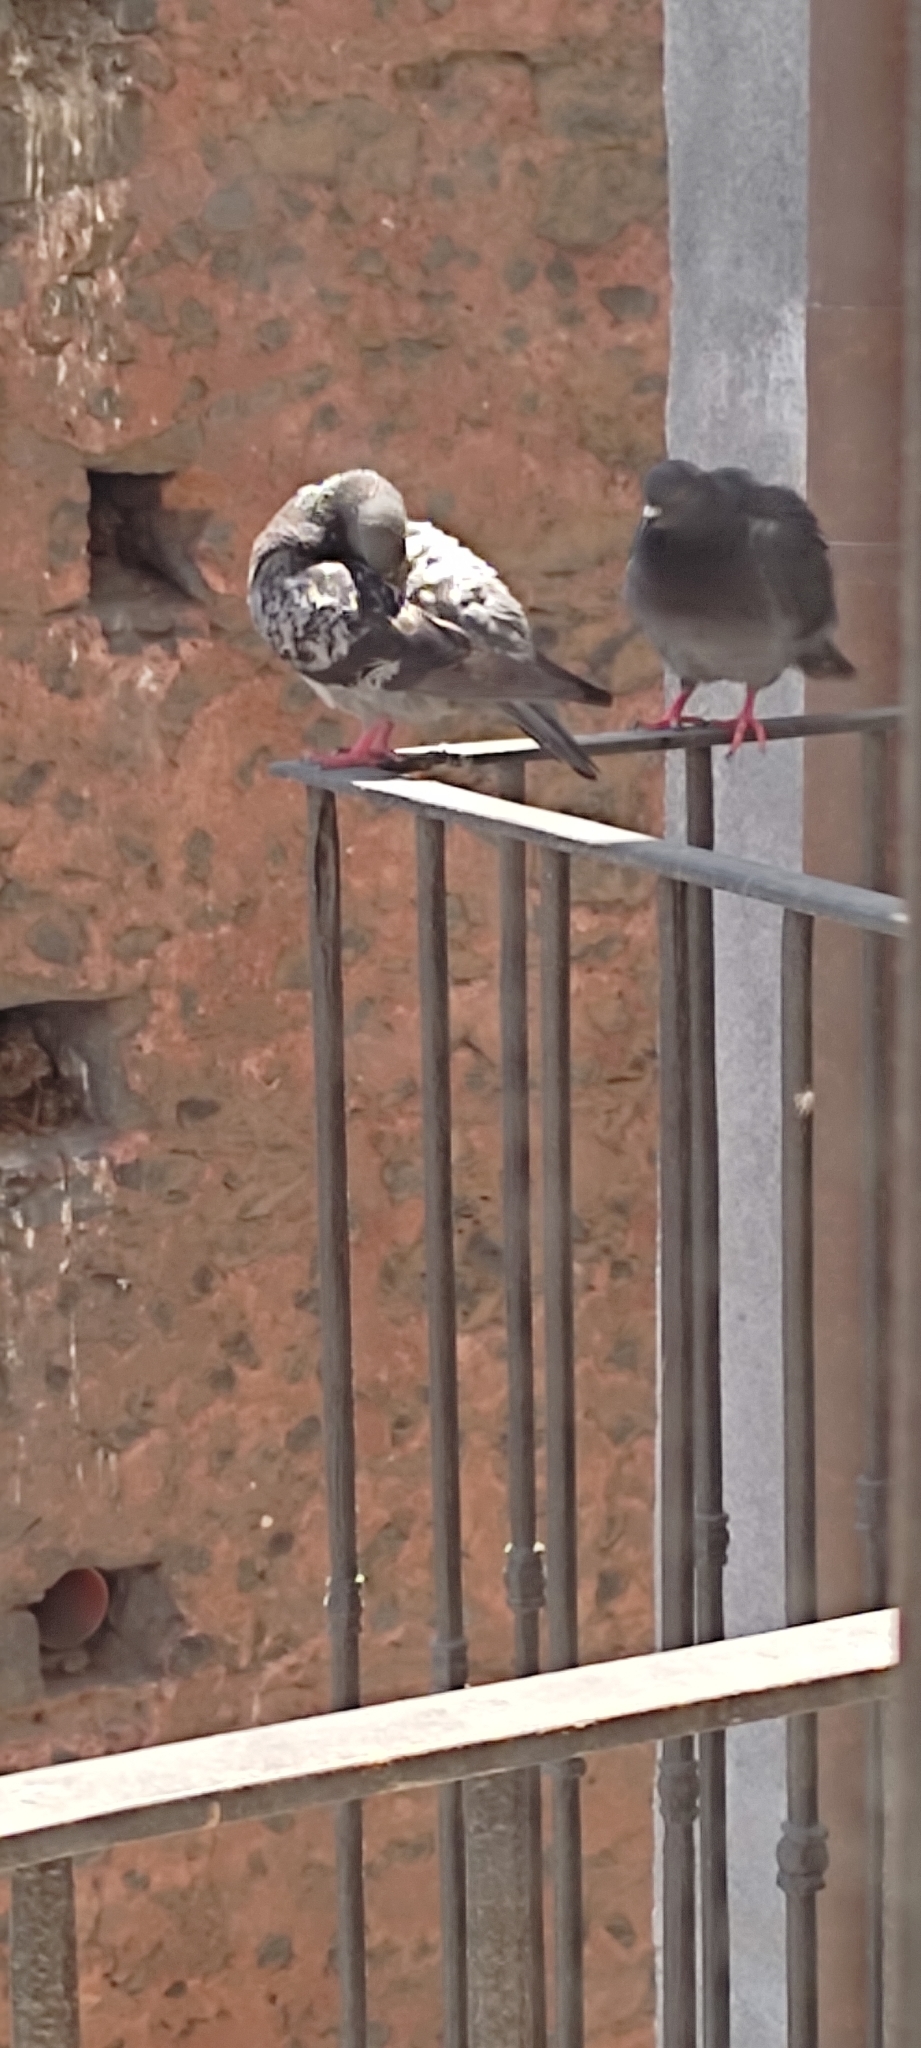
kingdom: Animalia
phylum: Chordata
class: Aves
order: Columbiformes
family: Columbidae
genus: Columba
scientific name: Columba livia
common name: Rock pigeon
